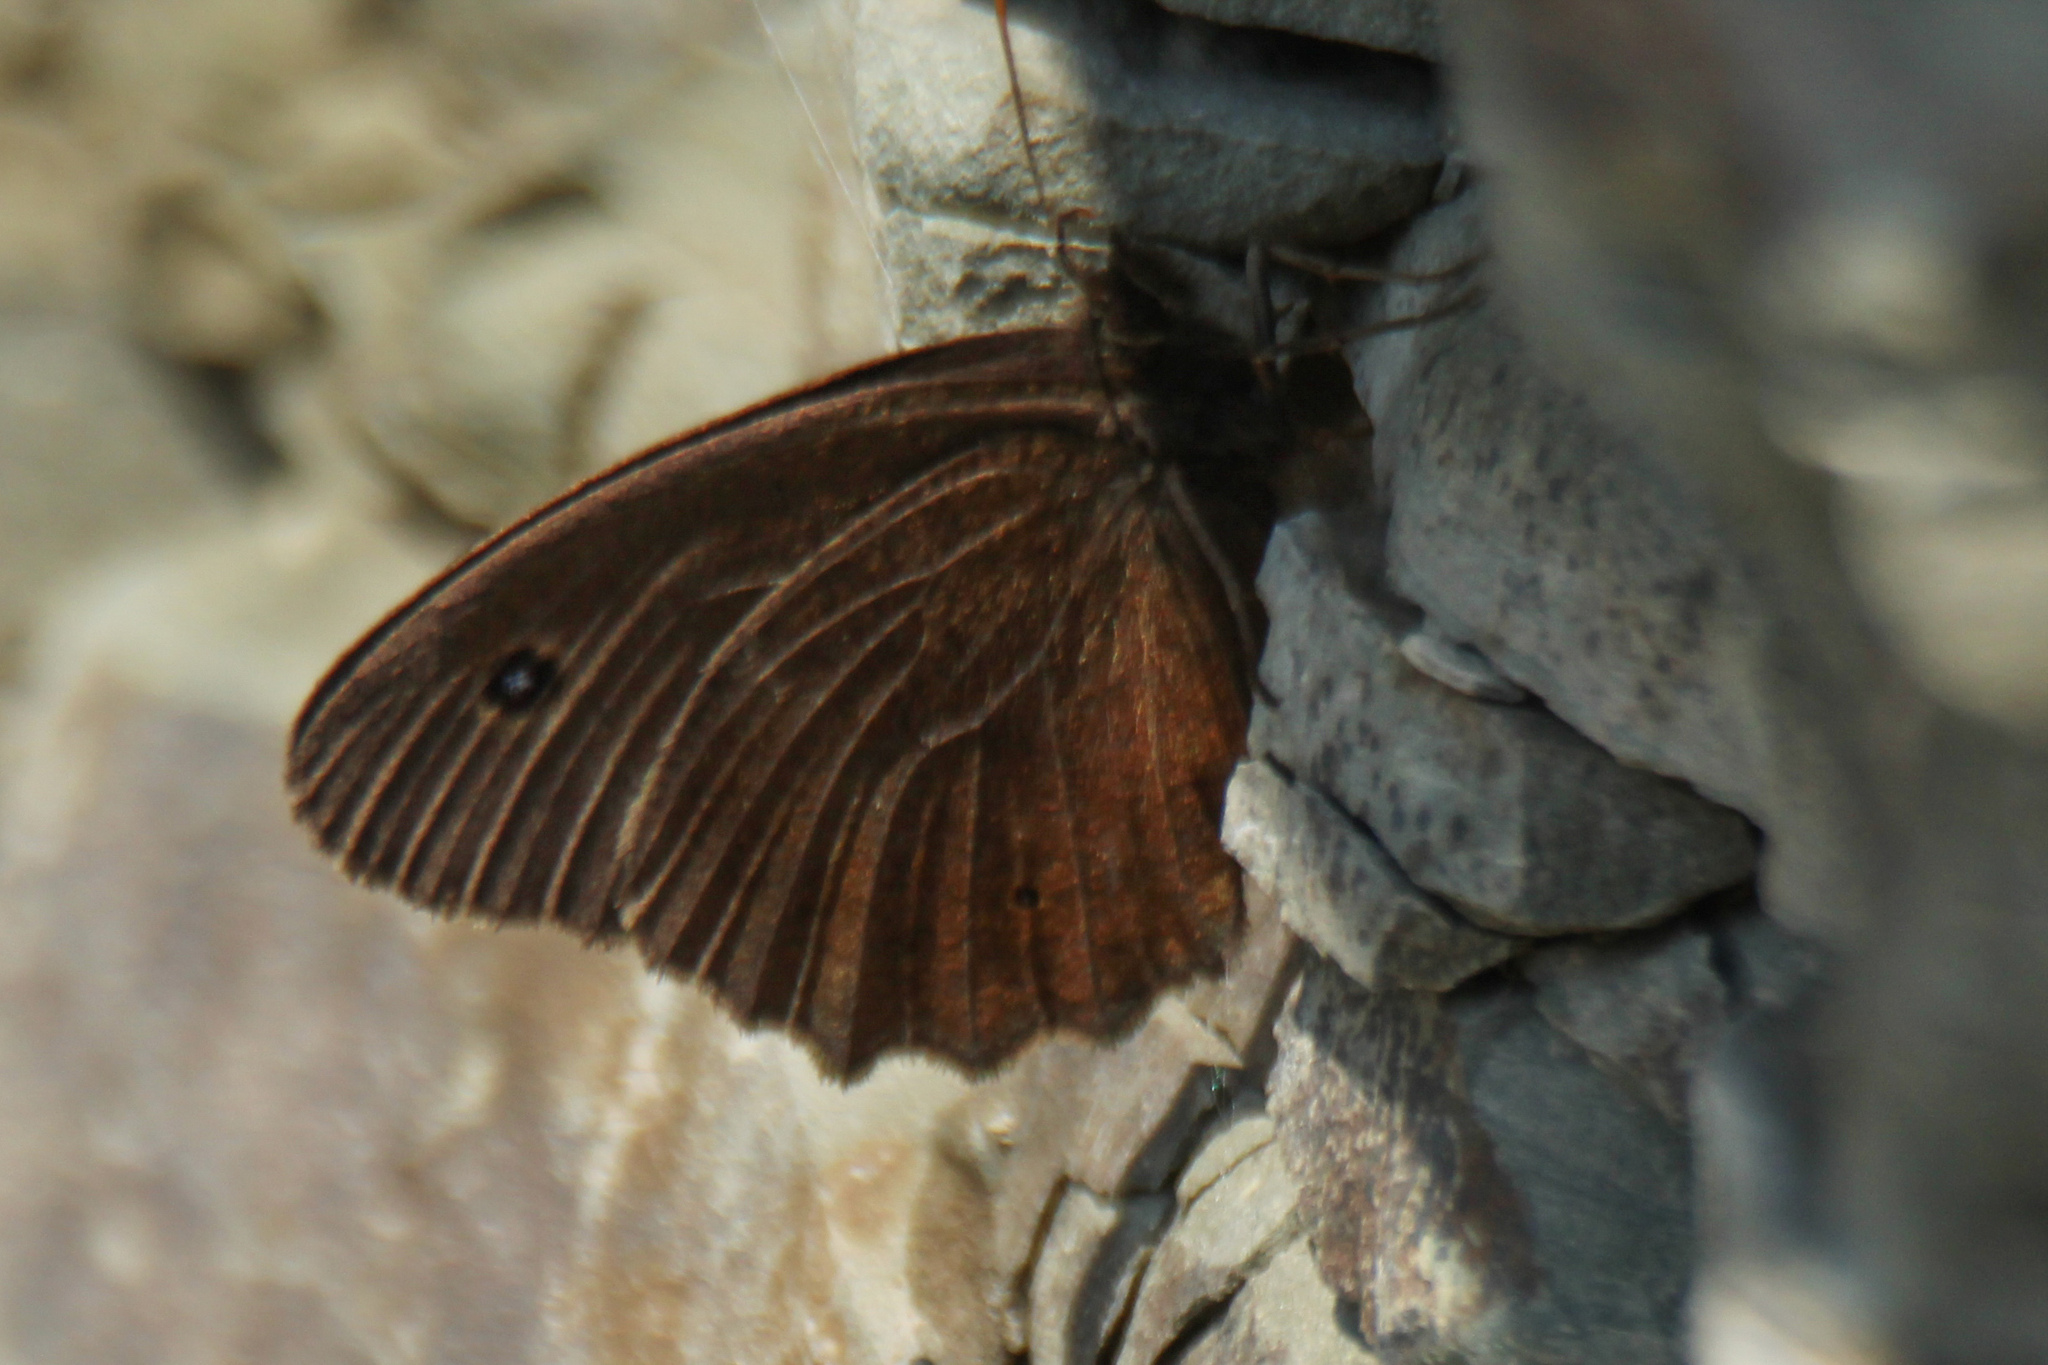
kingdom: Animalia
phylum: Arthropoda
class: Insecta
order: Lepidoptera
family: Nymphalidae
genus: Minois
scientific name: Minois dryas
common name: Dryad
